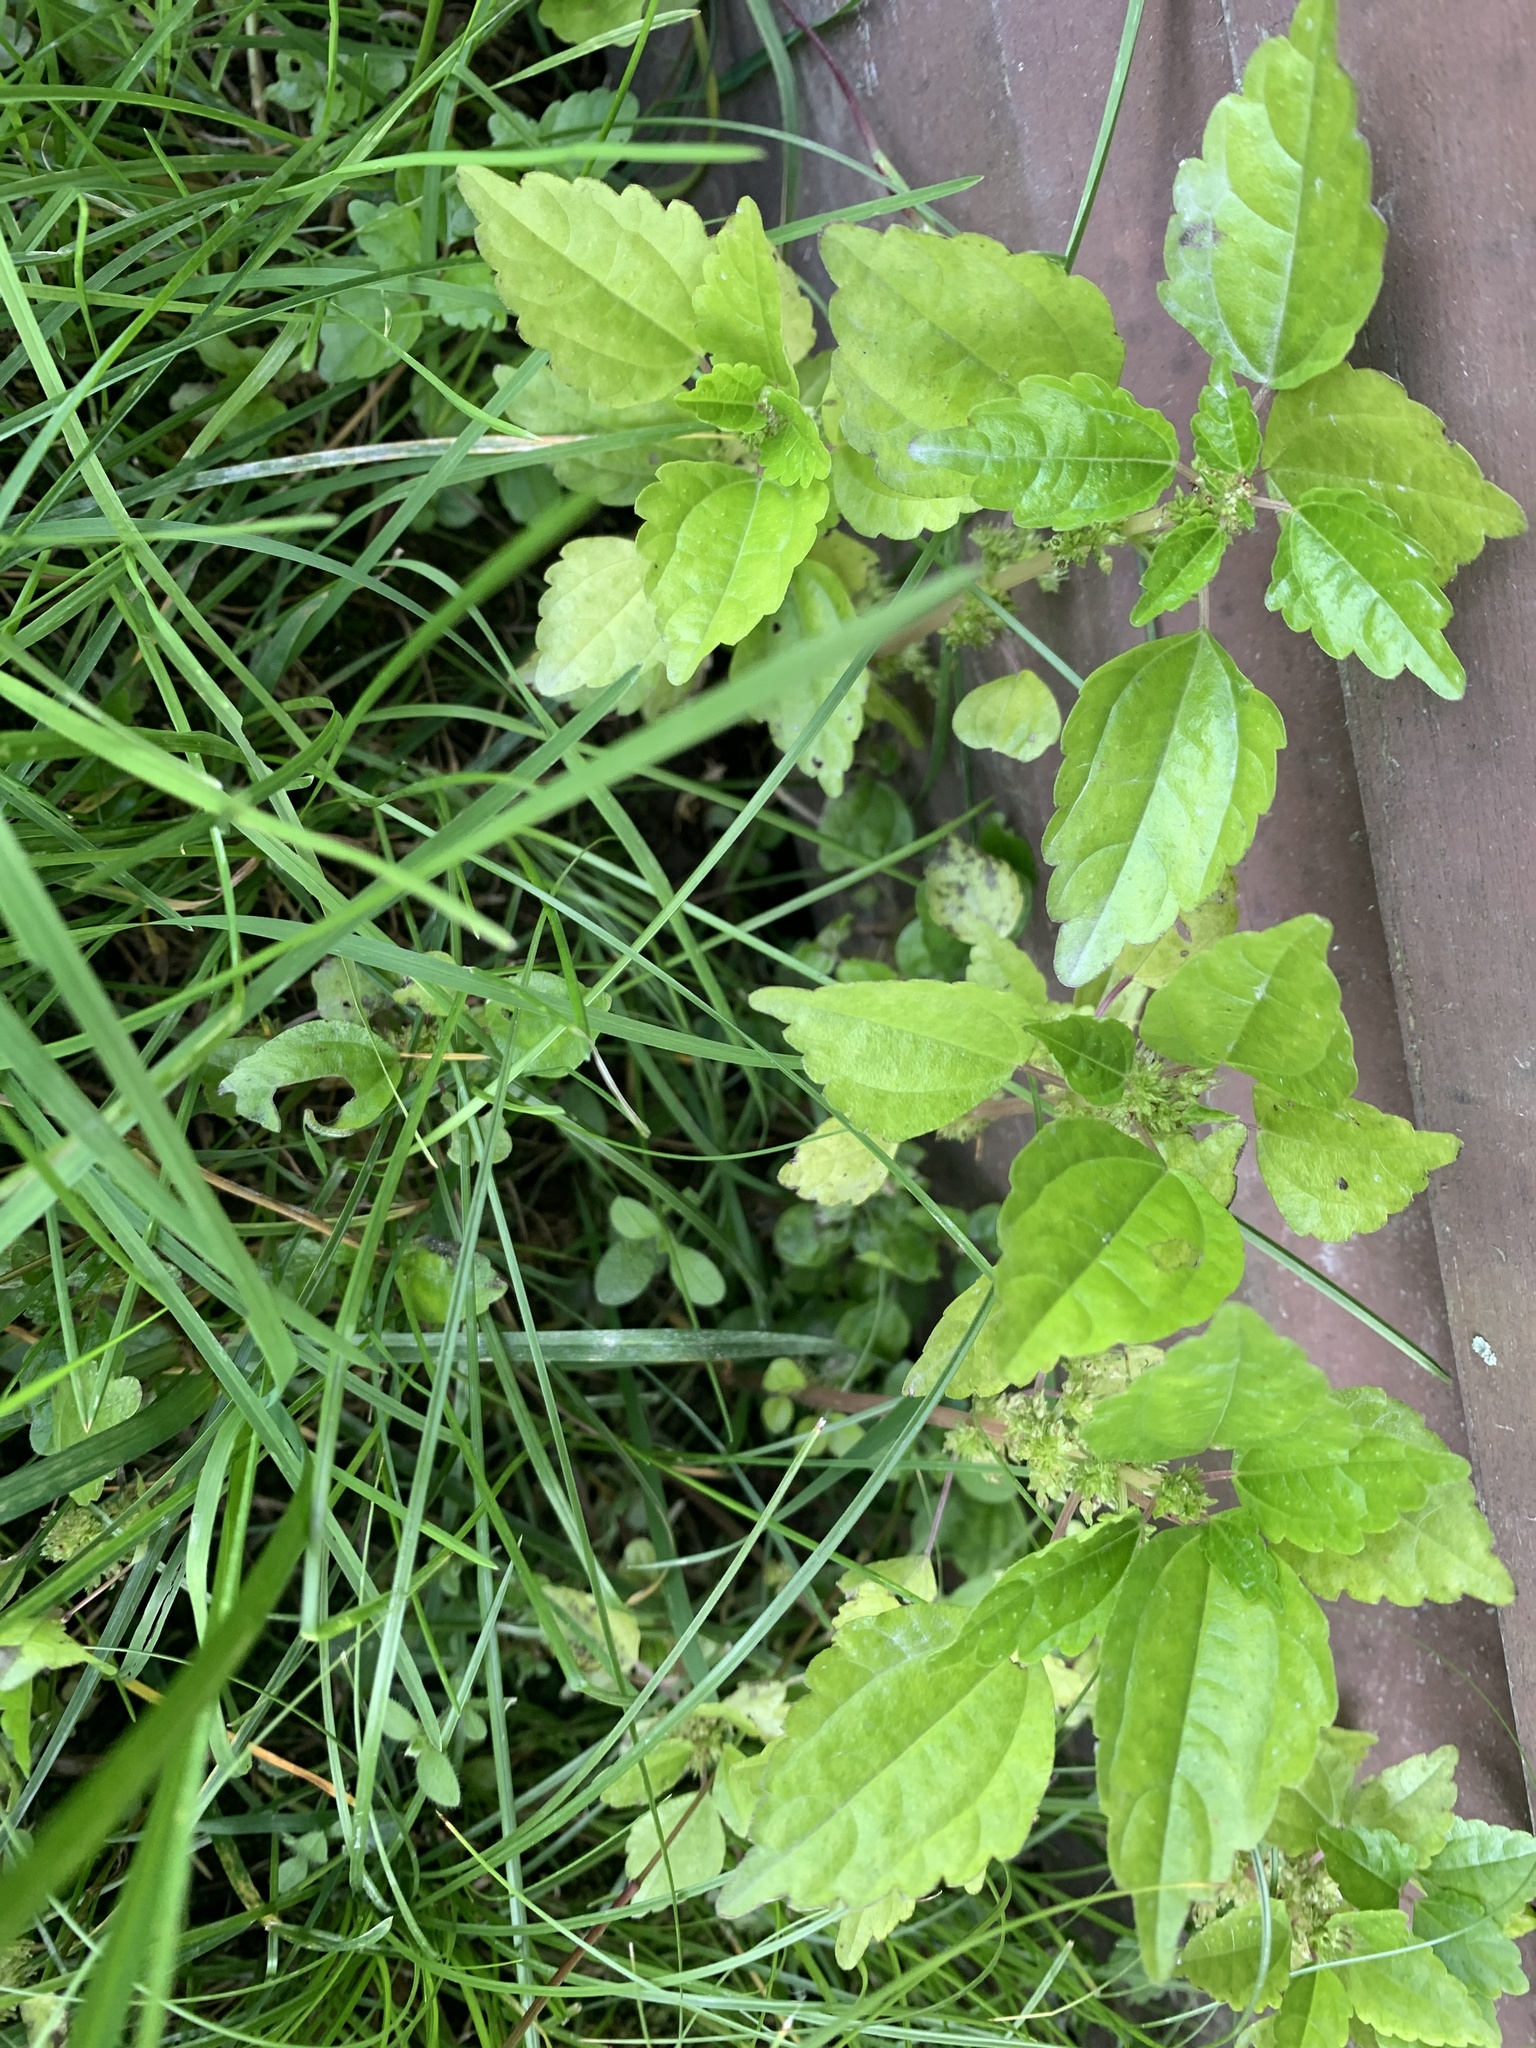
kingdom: Plantae
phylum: Tracheophyta
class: Magnoliopsida
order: Rosales
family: Urticaceae
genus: Pilea
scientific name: Pilea pumila
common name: Clearweed
